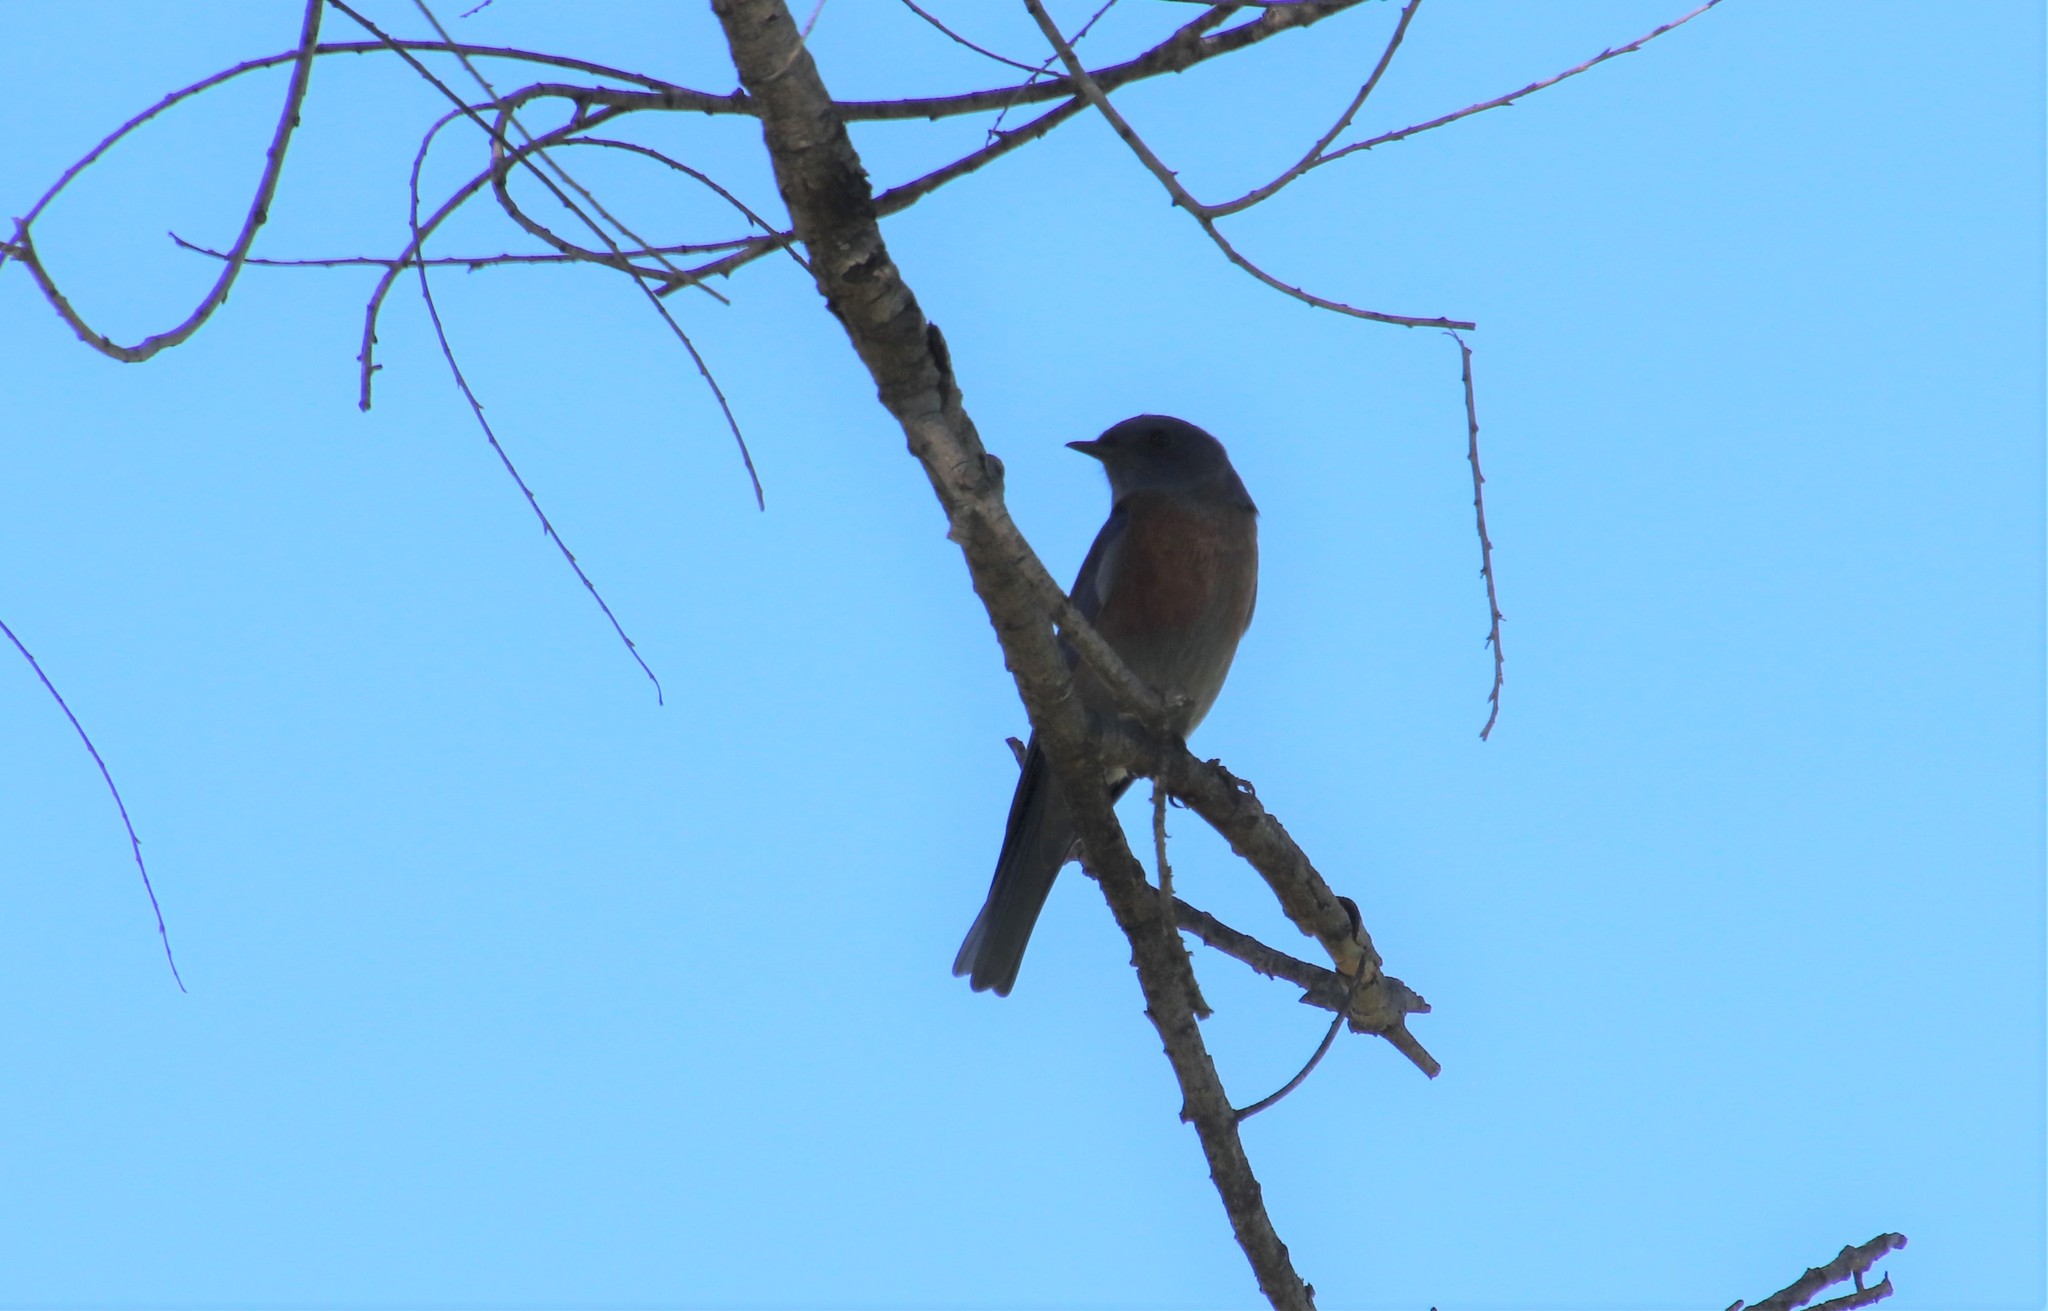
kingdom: Animalia
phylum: Chordata
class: Aves
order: Passeriformes
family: Turdidae
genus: Sialia
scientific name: Sialia mexicana
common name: Western bluebird
